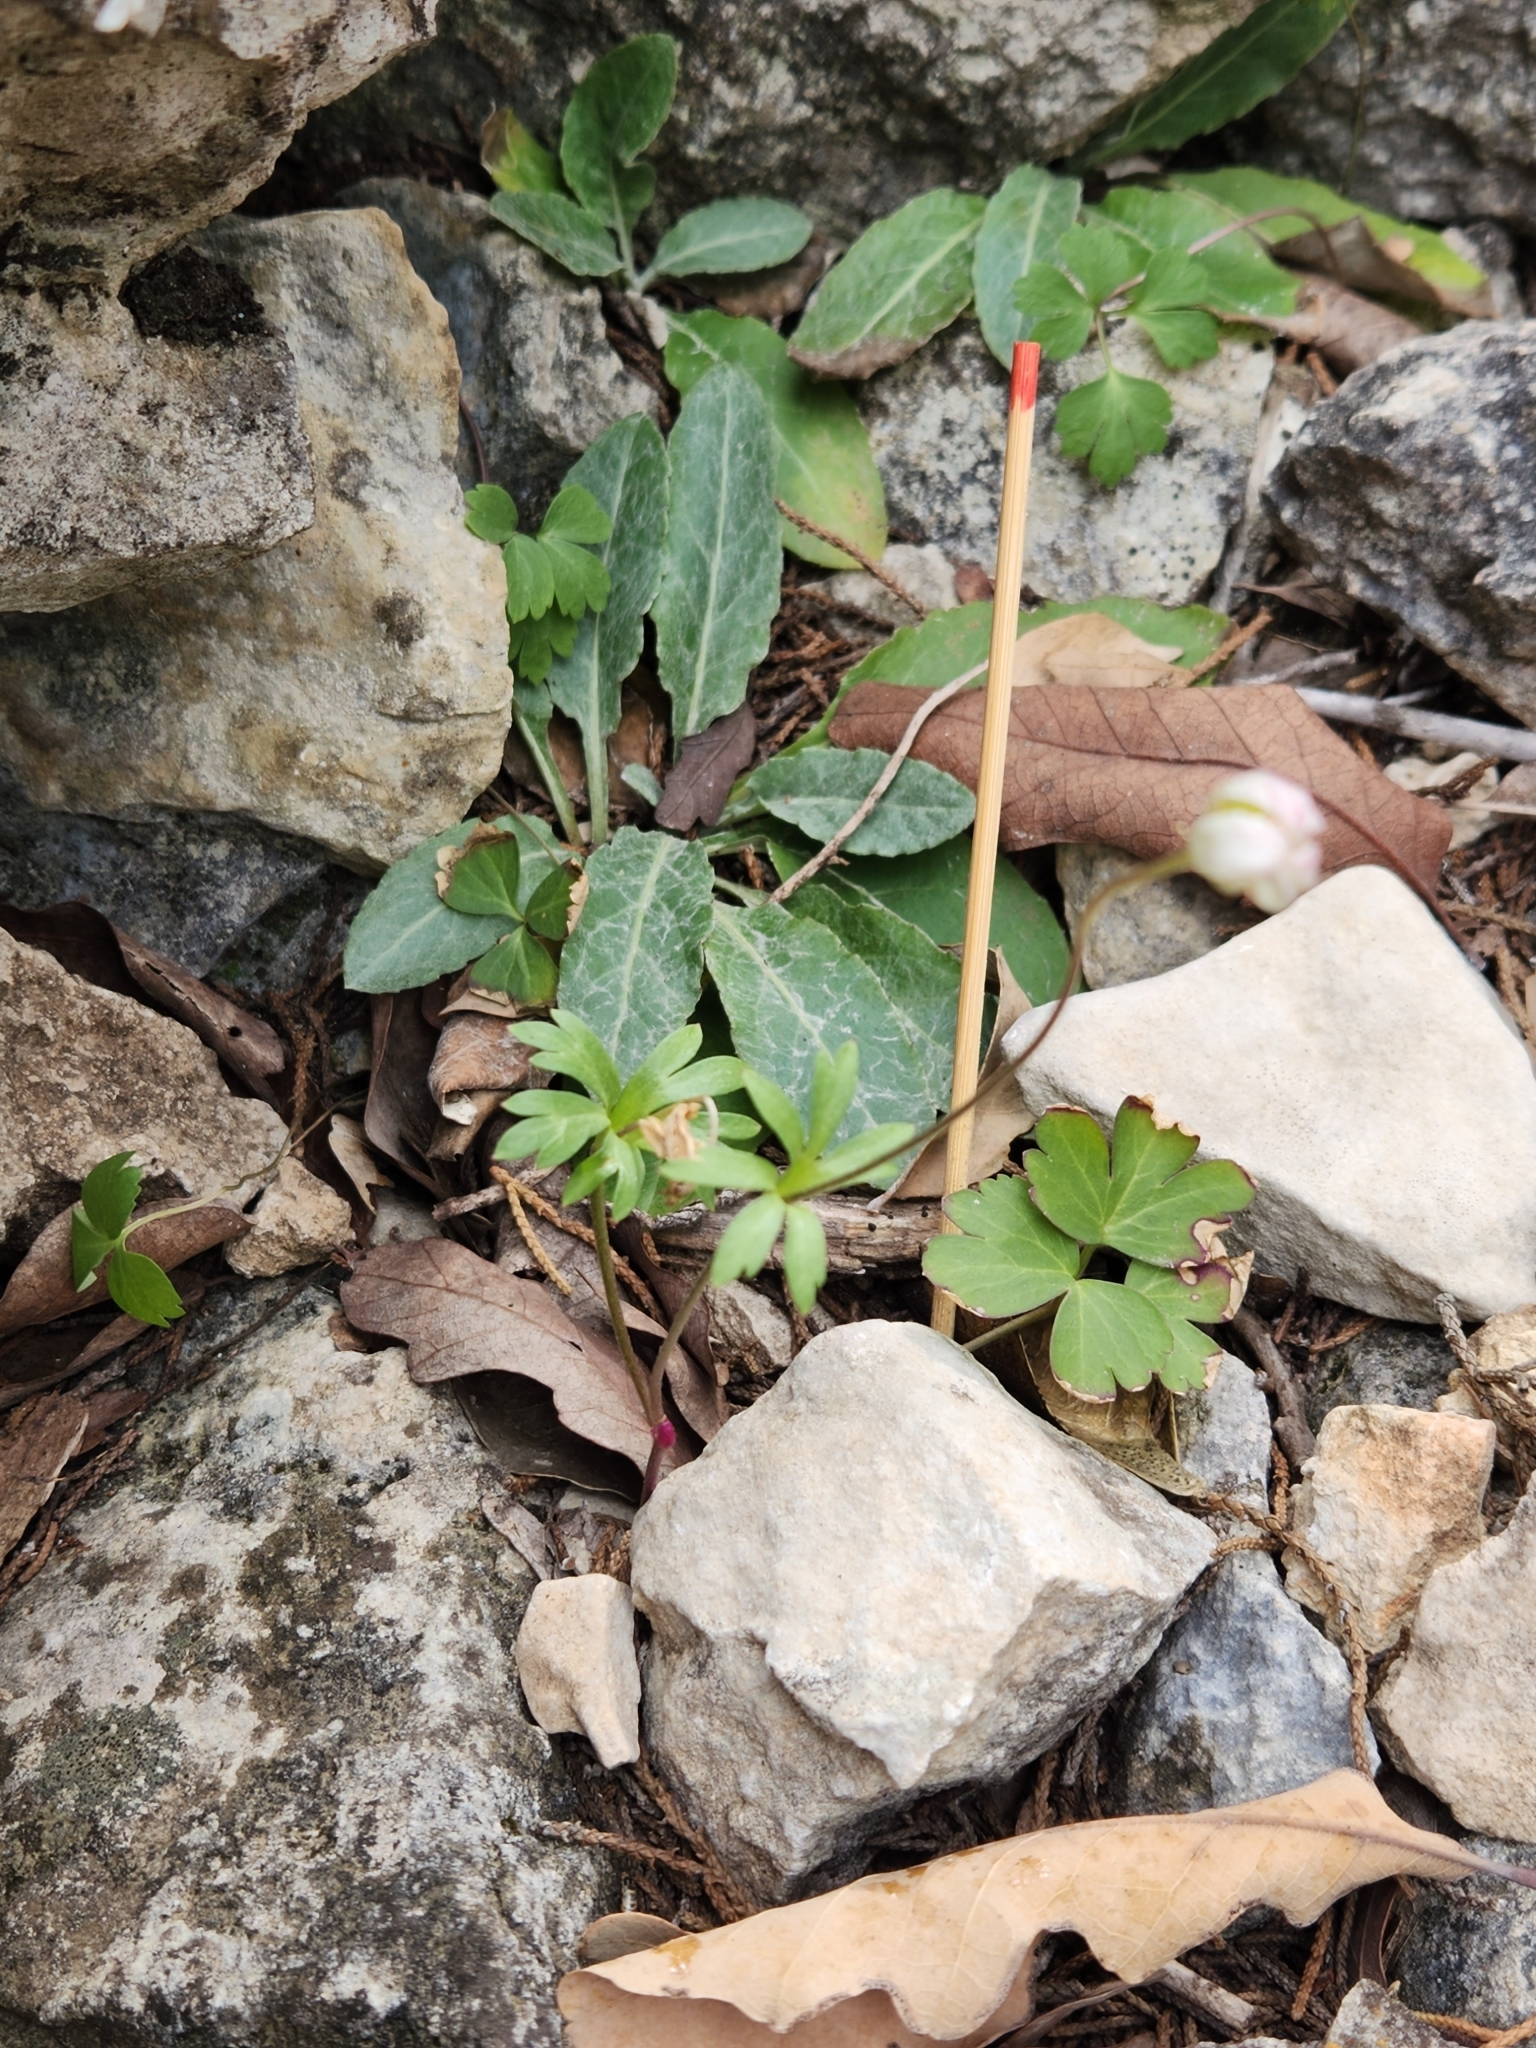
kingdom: Plantae
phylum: Tracheophyta
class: Magnoliopsida
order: Ranunculales
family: Ranunculaceae
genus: Anemone
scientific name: Anemone edwardsiana
